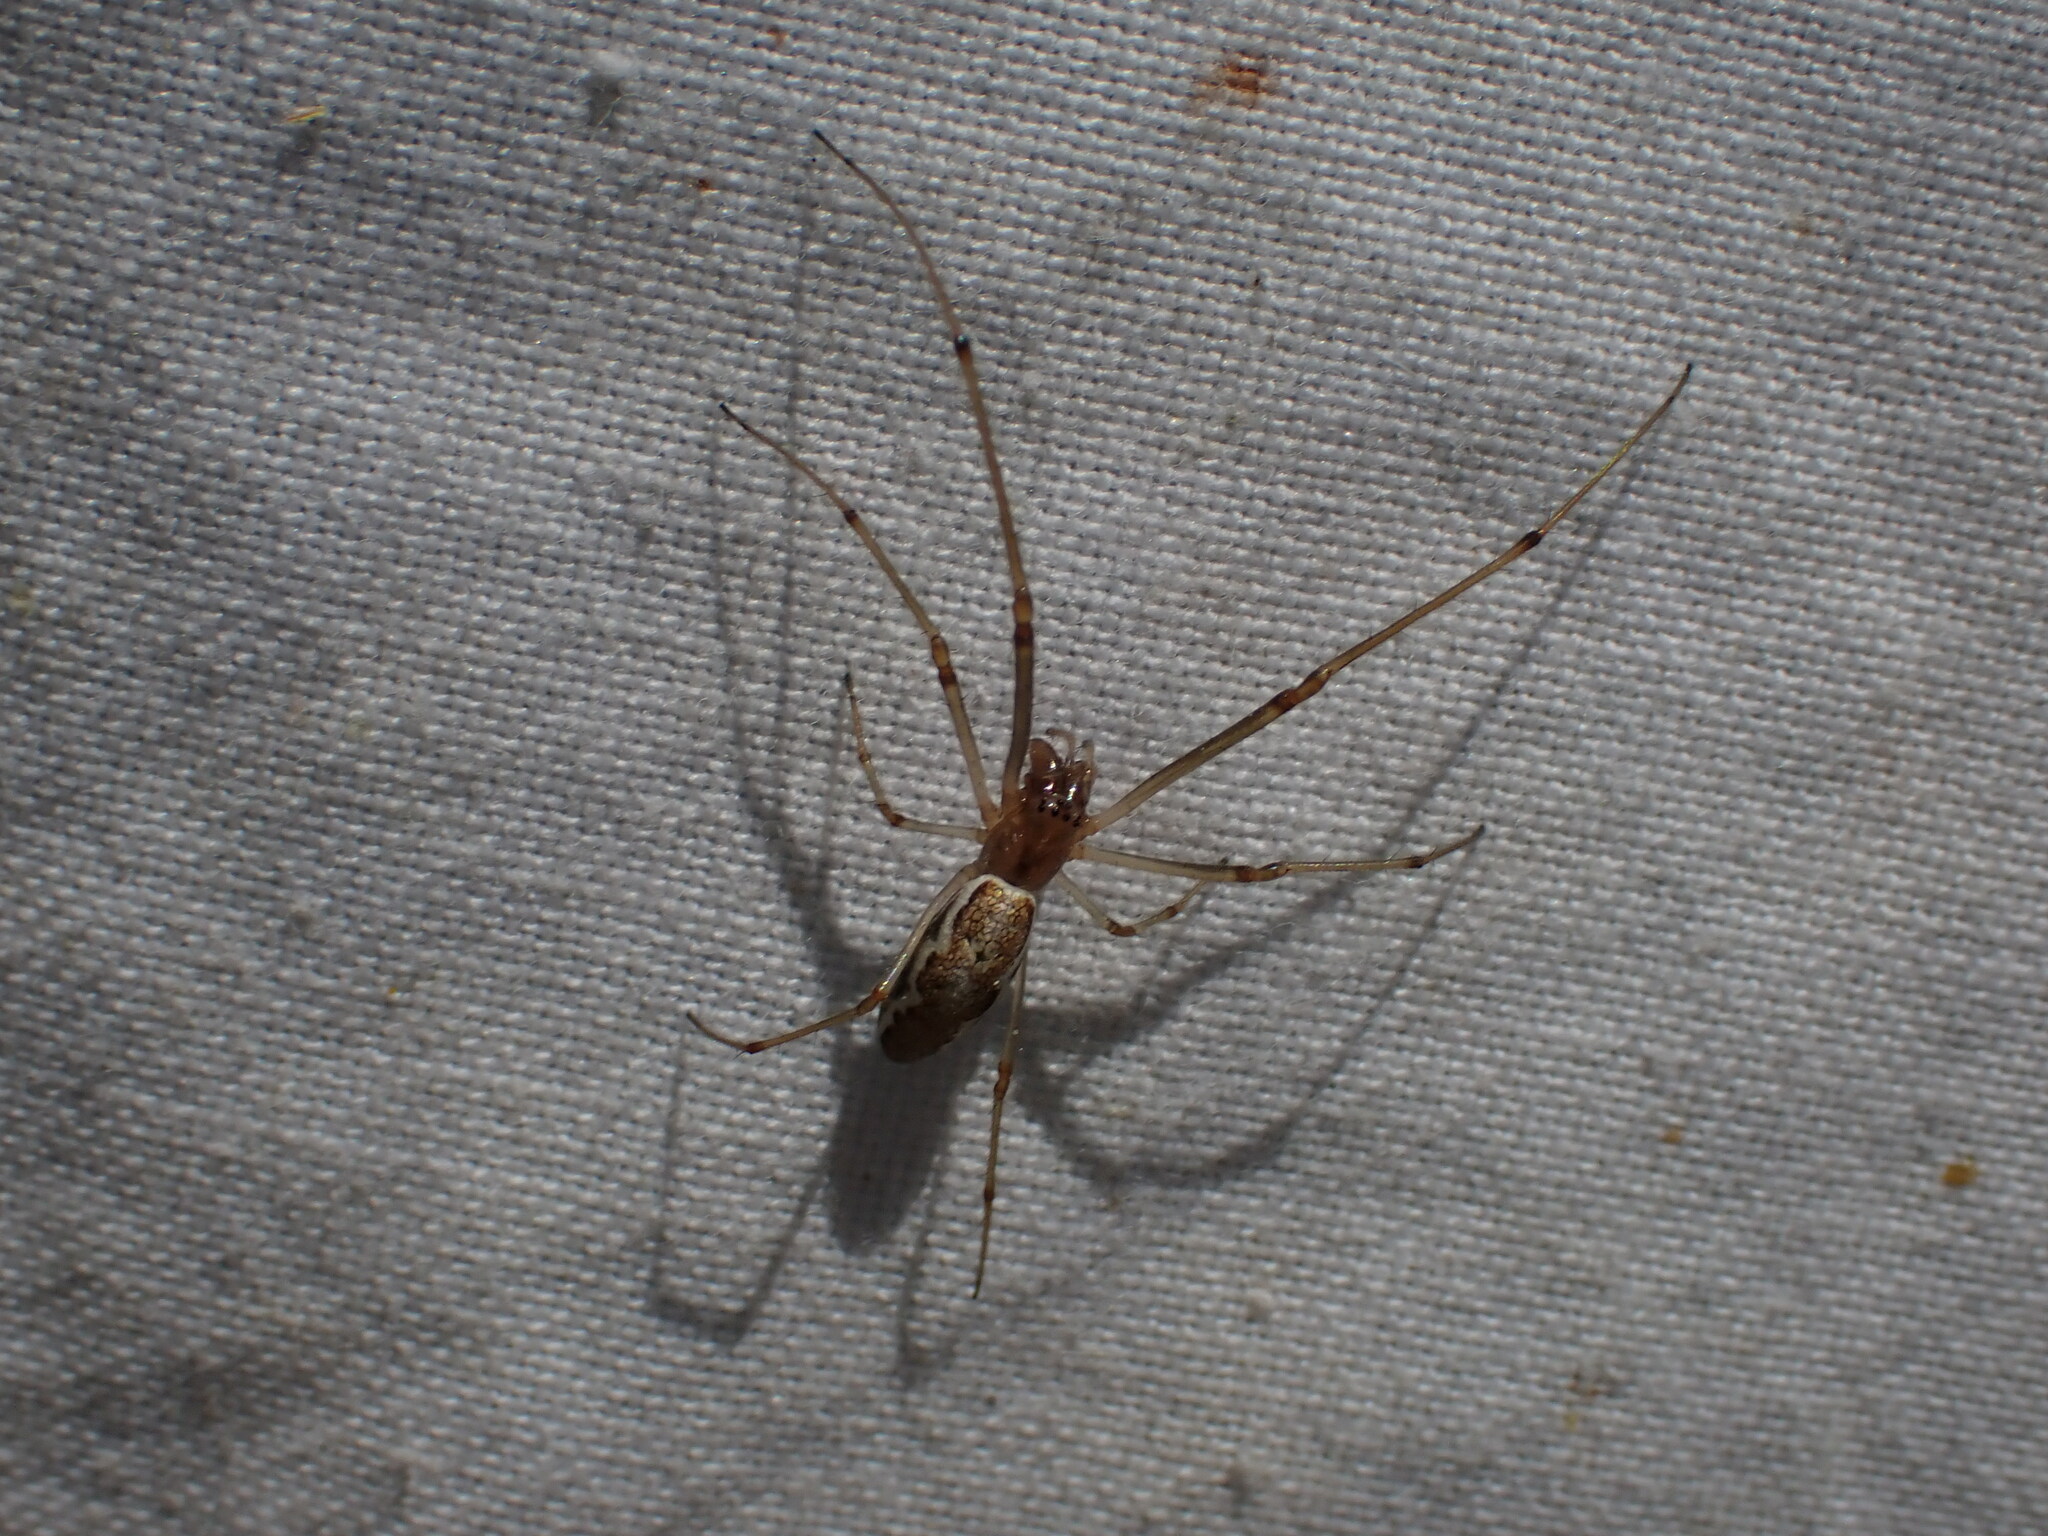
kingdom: Animalia
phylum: Arthropoda
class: Arachnida
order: Araneae
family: Tetragnathidae
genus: Tetragnatha
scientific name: Tetragnatha
